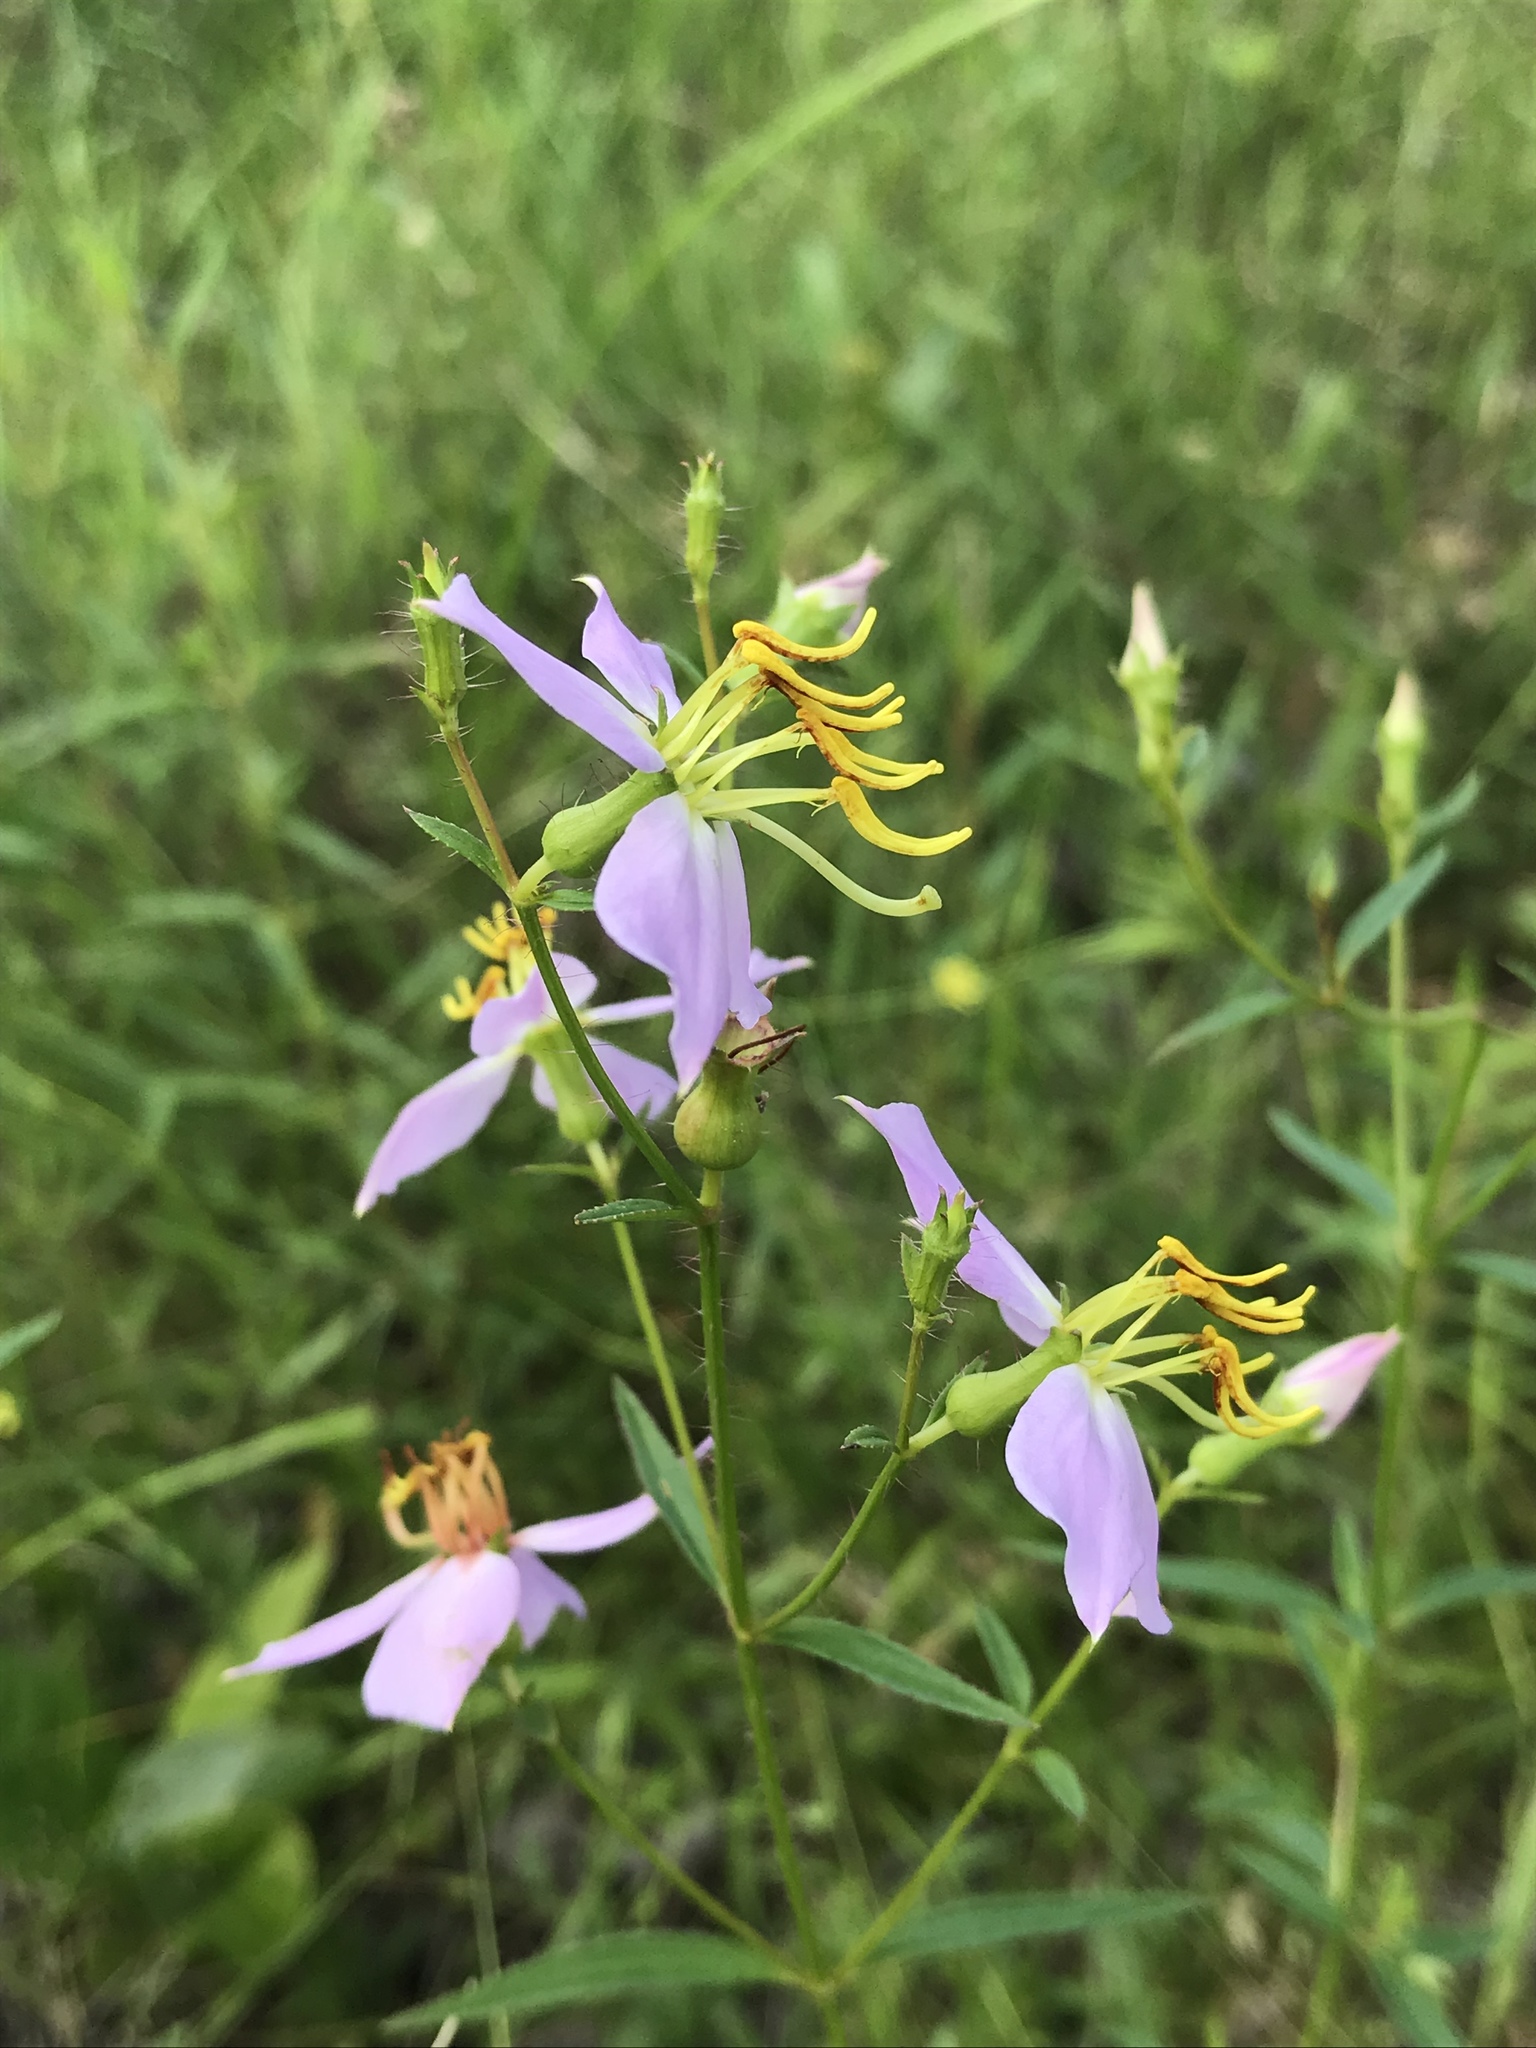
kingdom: Plantae
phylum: Tracheophyta
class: Magnoliopsida
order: Myrtales
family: Melastomataceae
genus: Rhexia
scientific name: Rhexia mariana
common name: Dull meadow-pitcher
